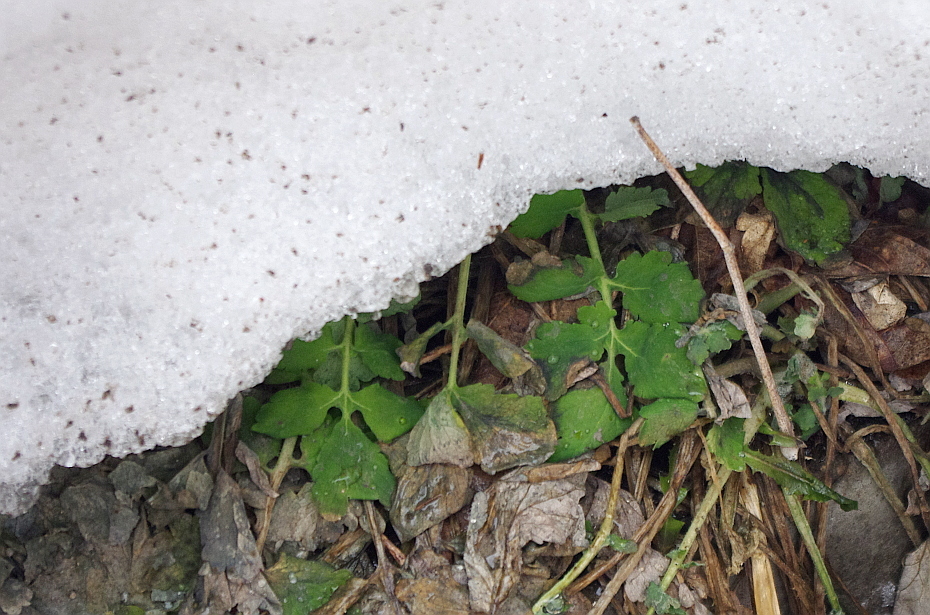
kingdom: Plantae
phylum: Tracheophyta
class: Magnoliopsida
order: Ranunculales
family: Papaveraceae
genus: Chelidonium
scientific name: Chelidonium majus
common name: Greater celandine
